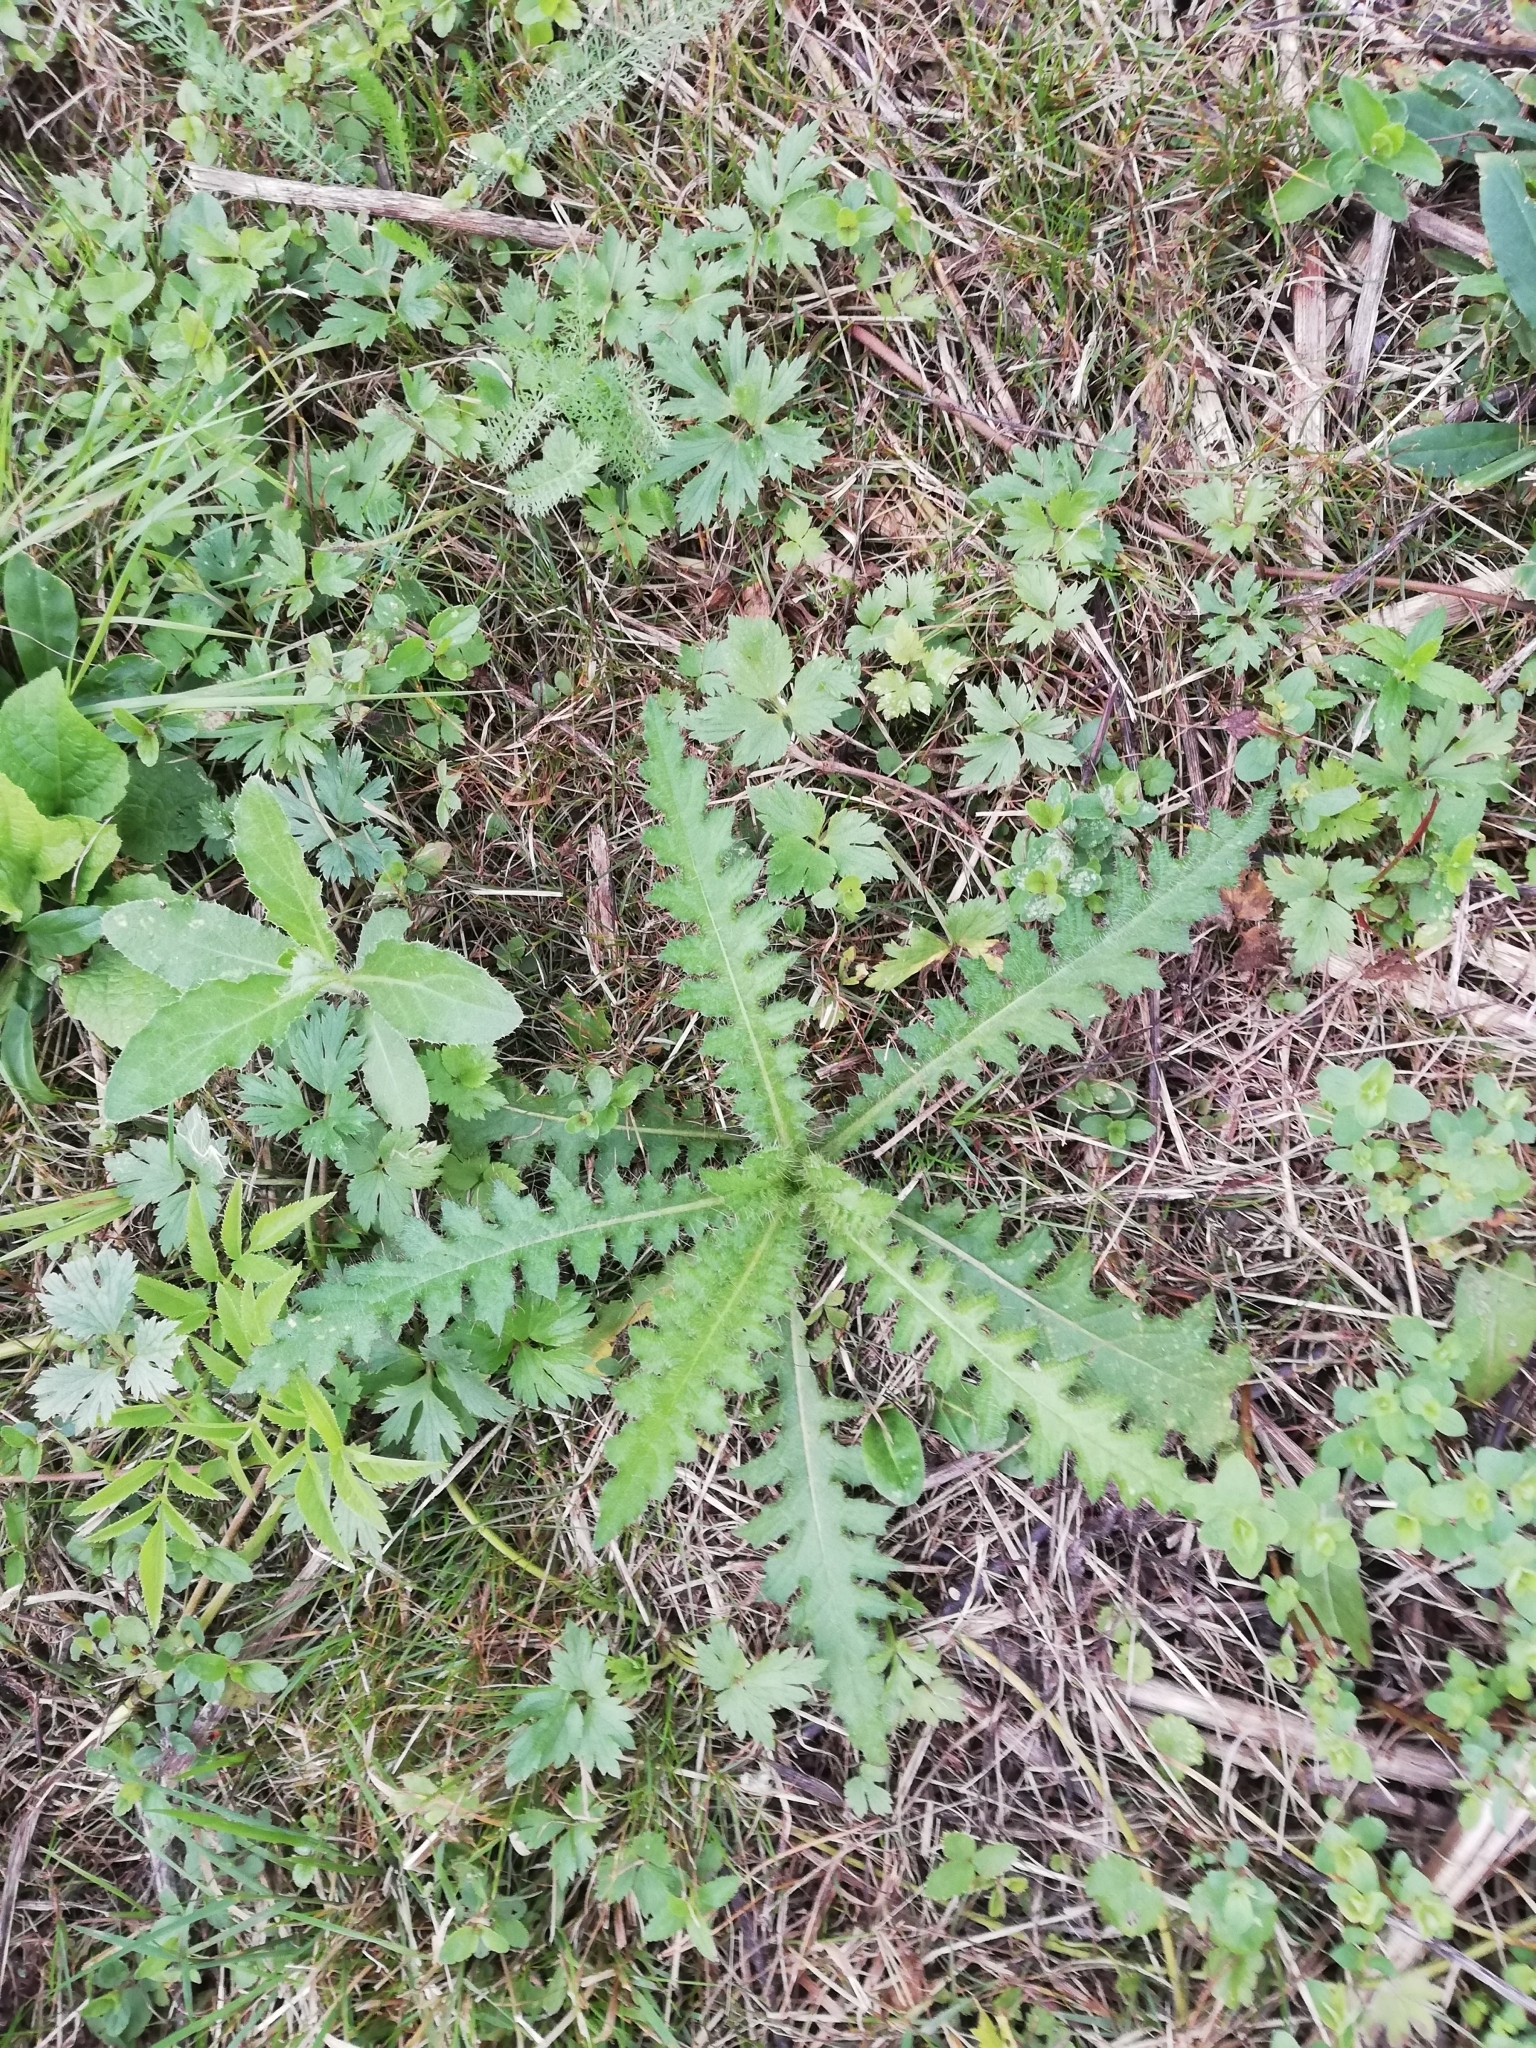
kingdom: Plantae
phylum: Tracheophyta
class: Magnoliopsida
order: Asterales
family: Asteraceae
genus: Cirsium
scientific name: Cirsium palustre
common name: Marsh thistle
